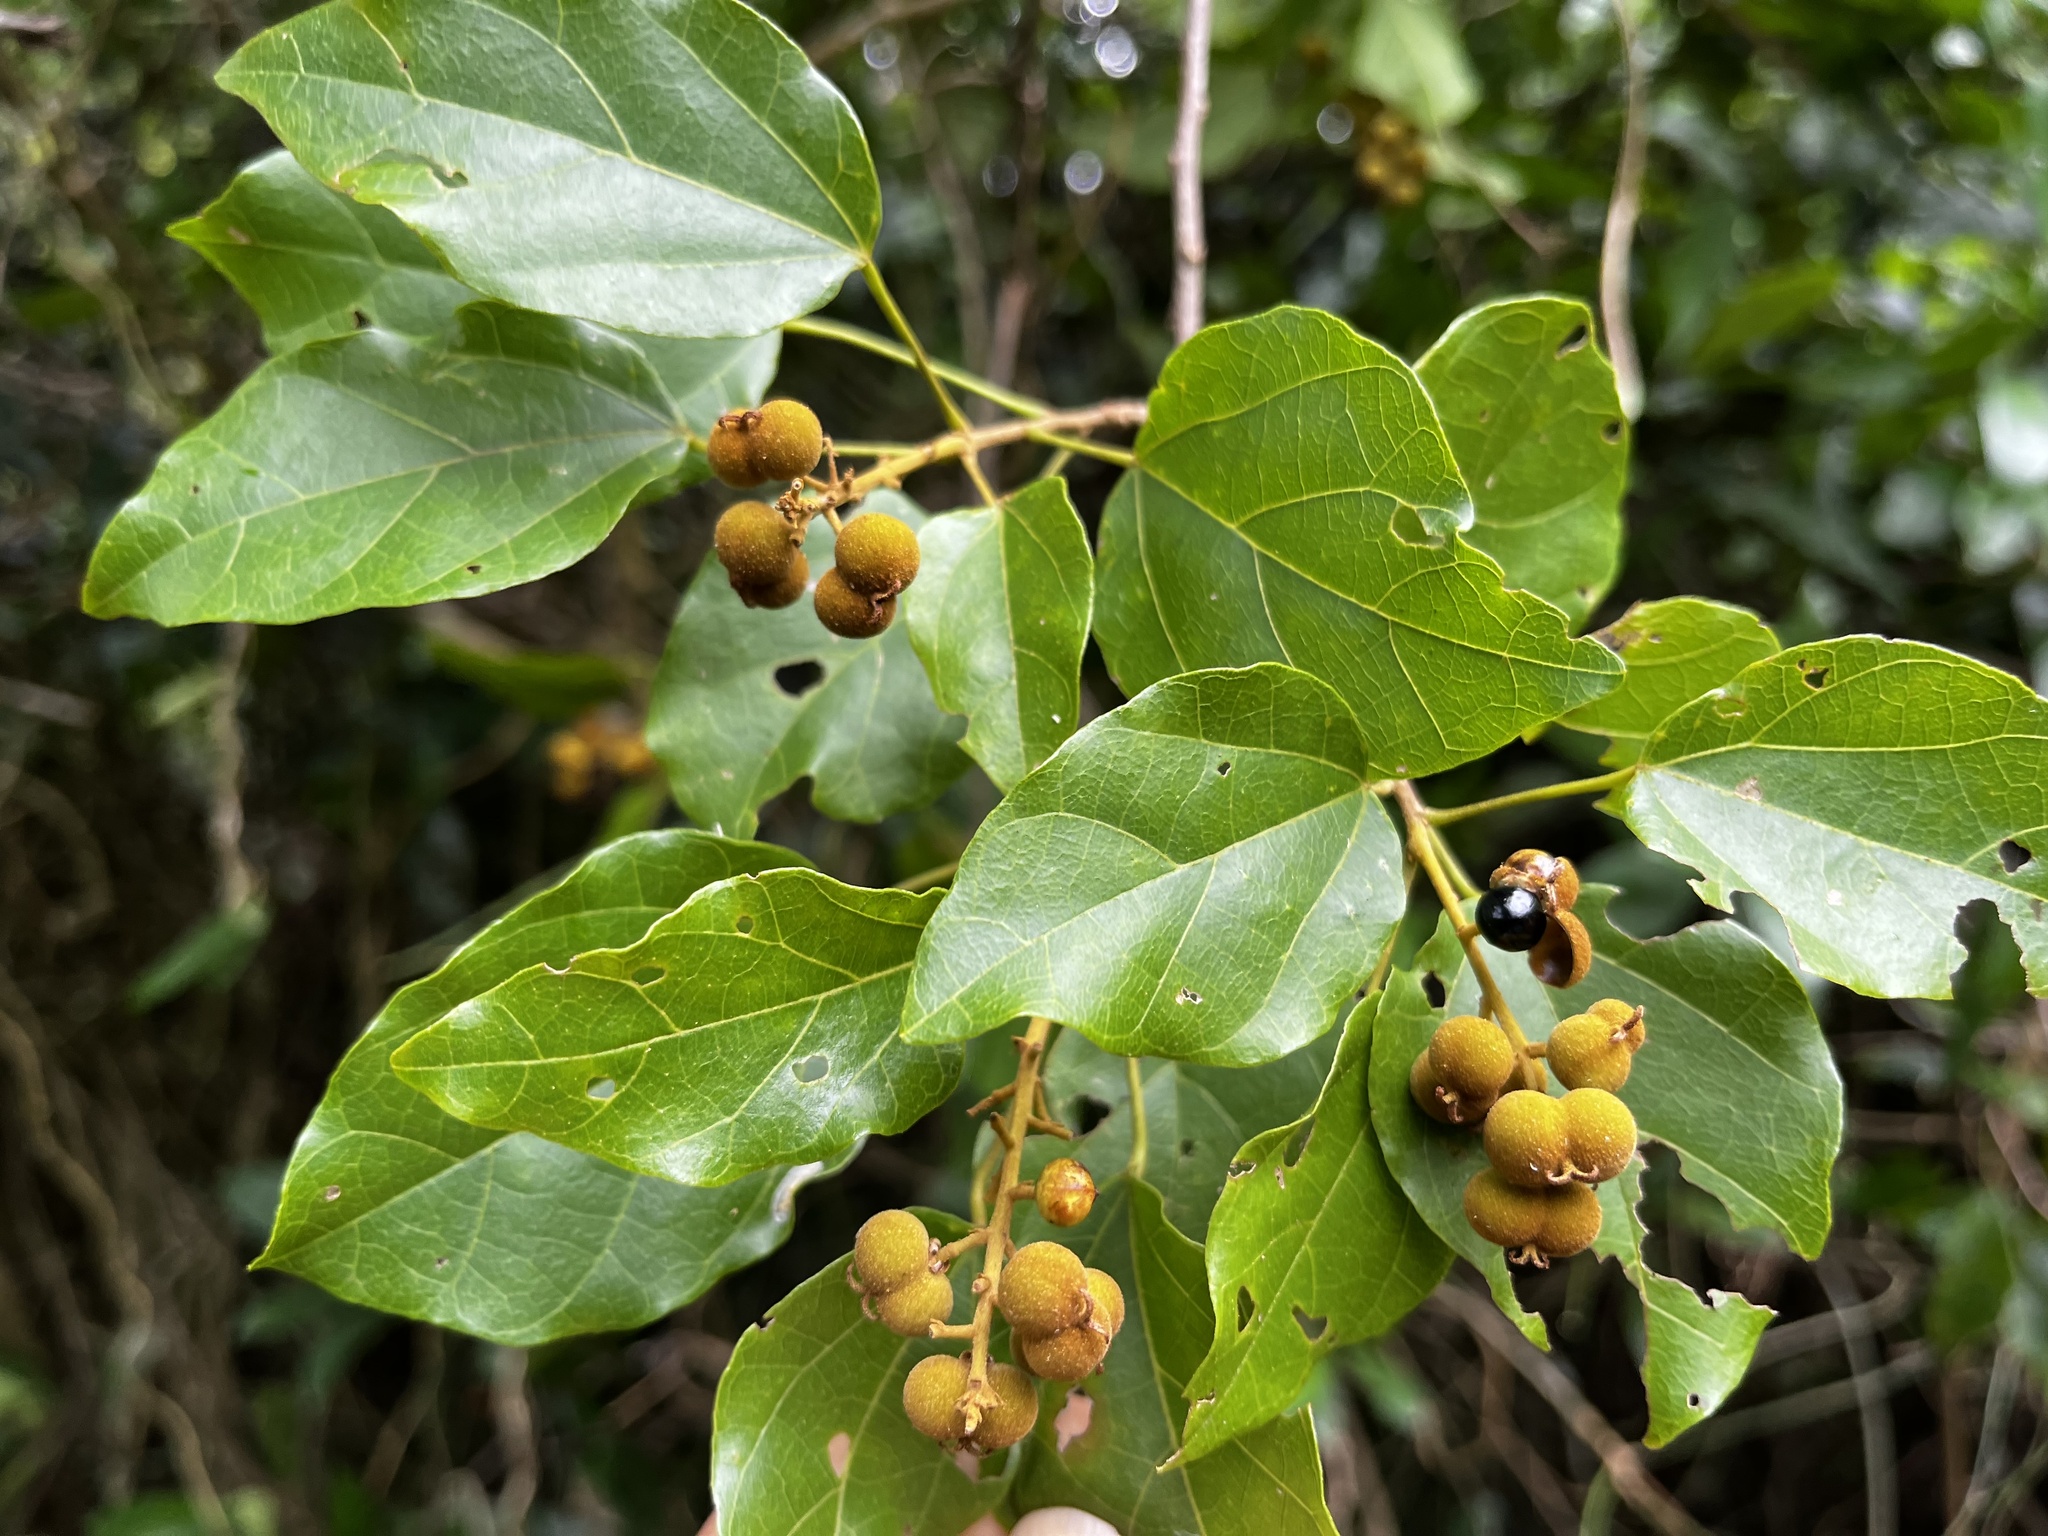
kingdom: Plantae
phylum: Tracheophyta
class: Magnoliopsida
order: Malpighiales
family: Euphorbiaceae
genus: Mallotus
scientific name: Mallotus repandus
